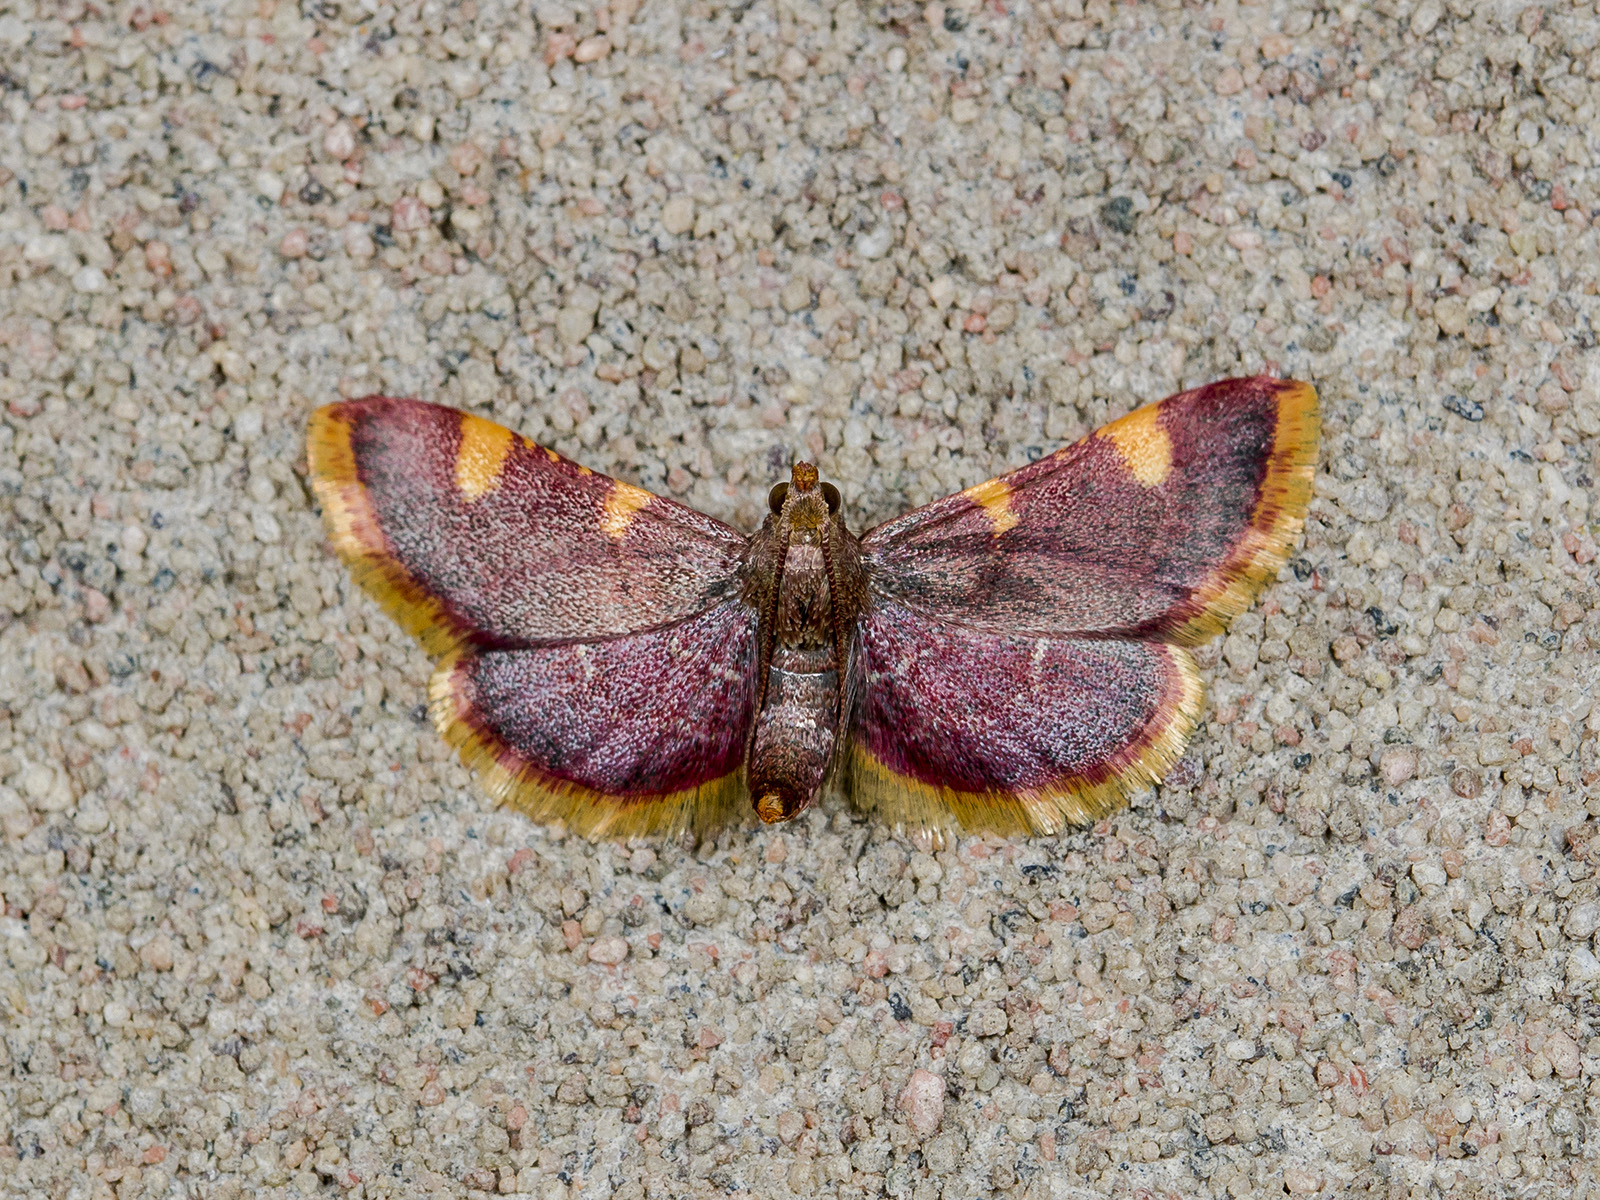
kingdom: Animalia
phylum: Arthropoda
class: Insecta
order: Lepidoptera
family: Pyralidae
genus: Hypsopygia
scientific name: Hypsopygia costalis
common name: Gold triangle
